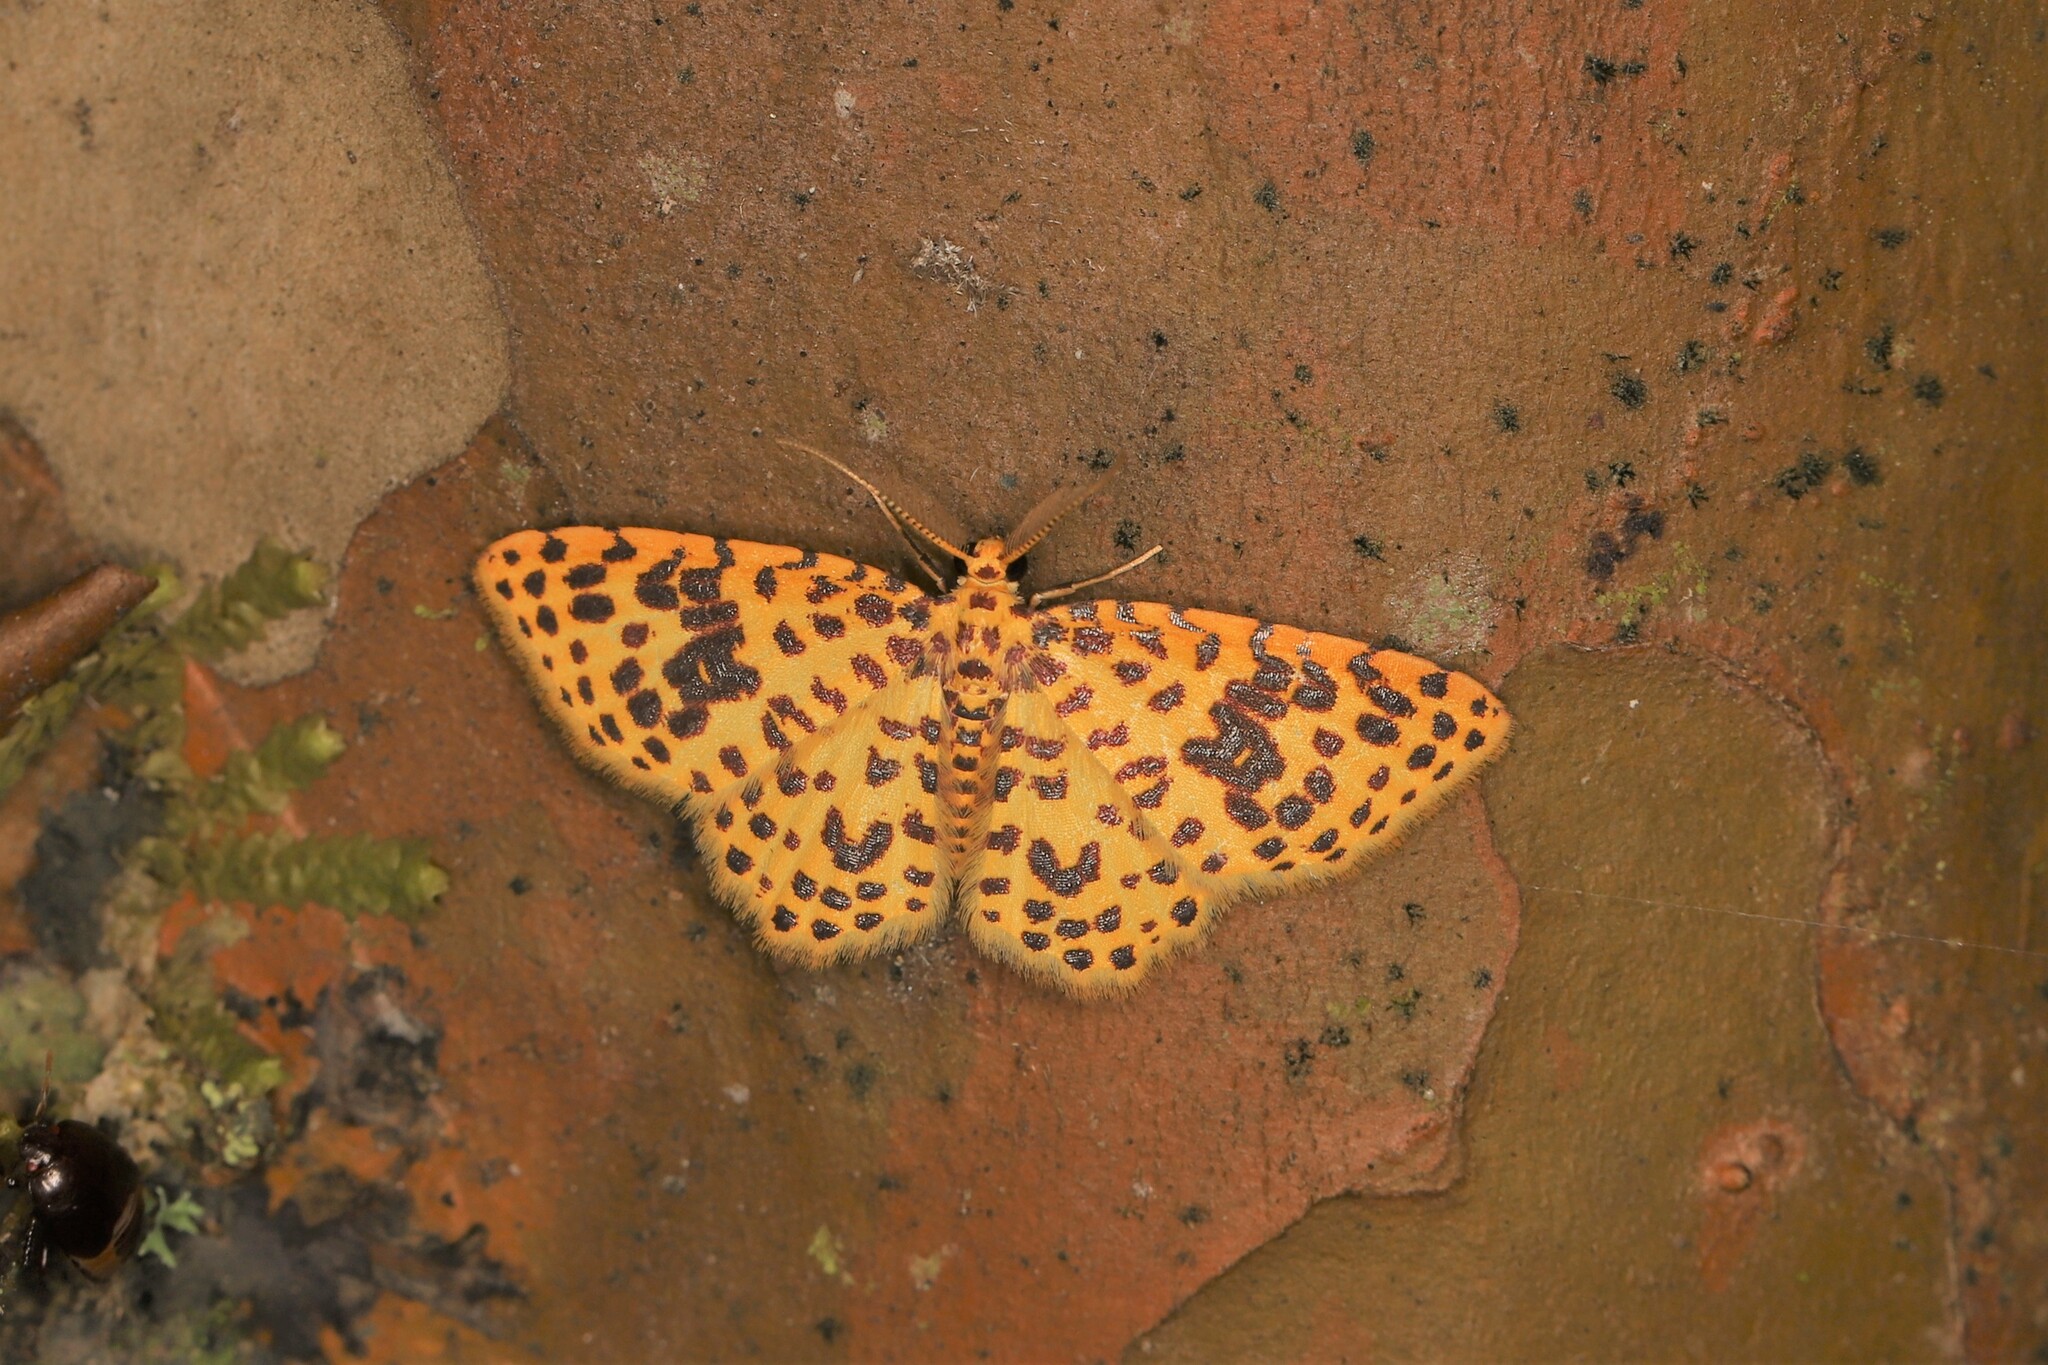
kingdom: Animalia
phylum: Arthropoda
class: Insecta
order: Lepidoptera
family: Geometridae
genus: Eois
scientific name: Eois golosata
